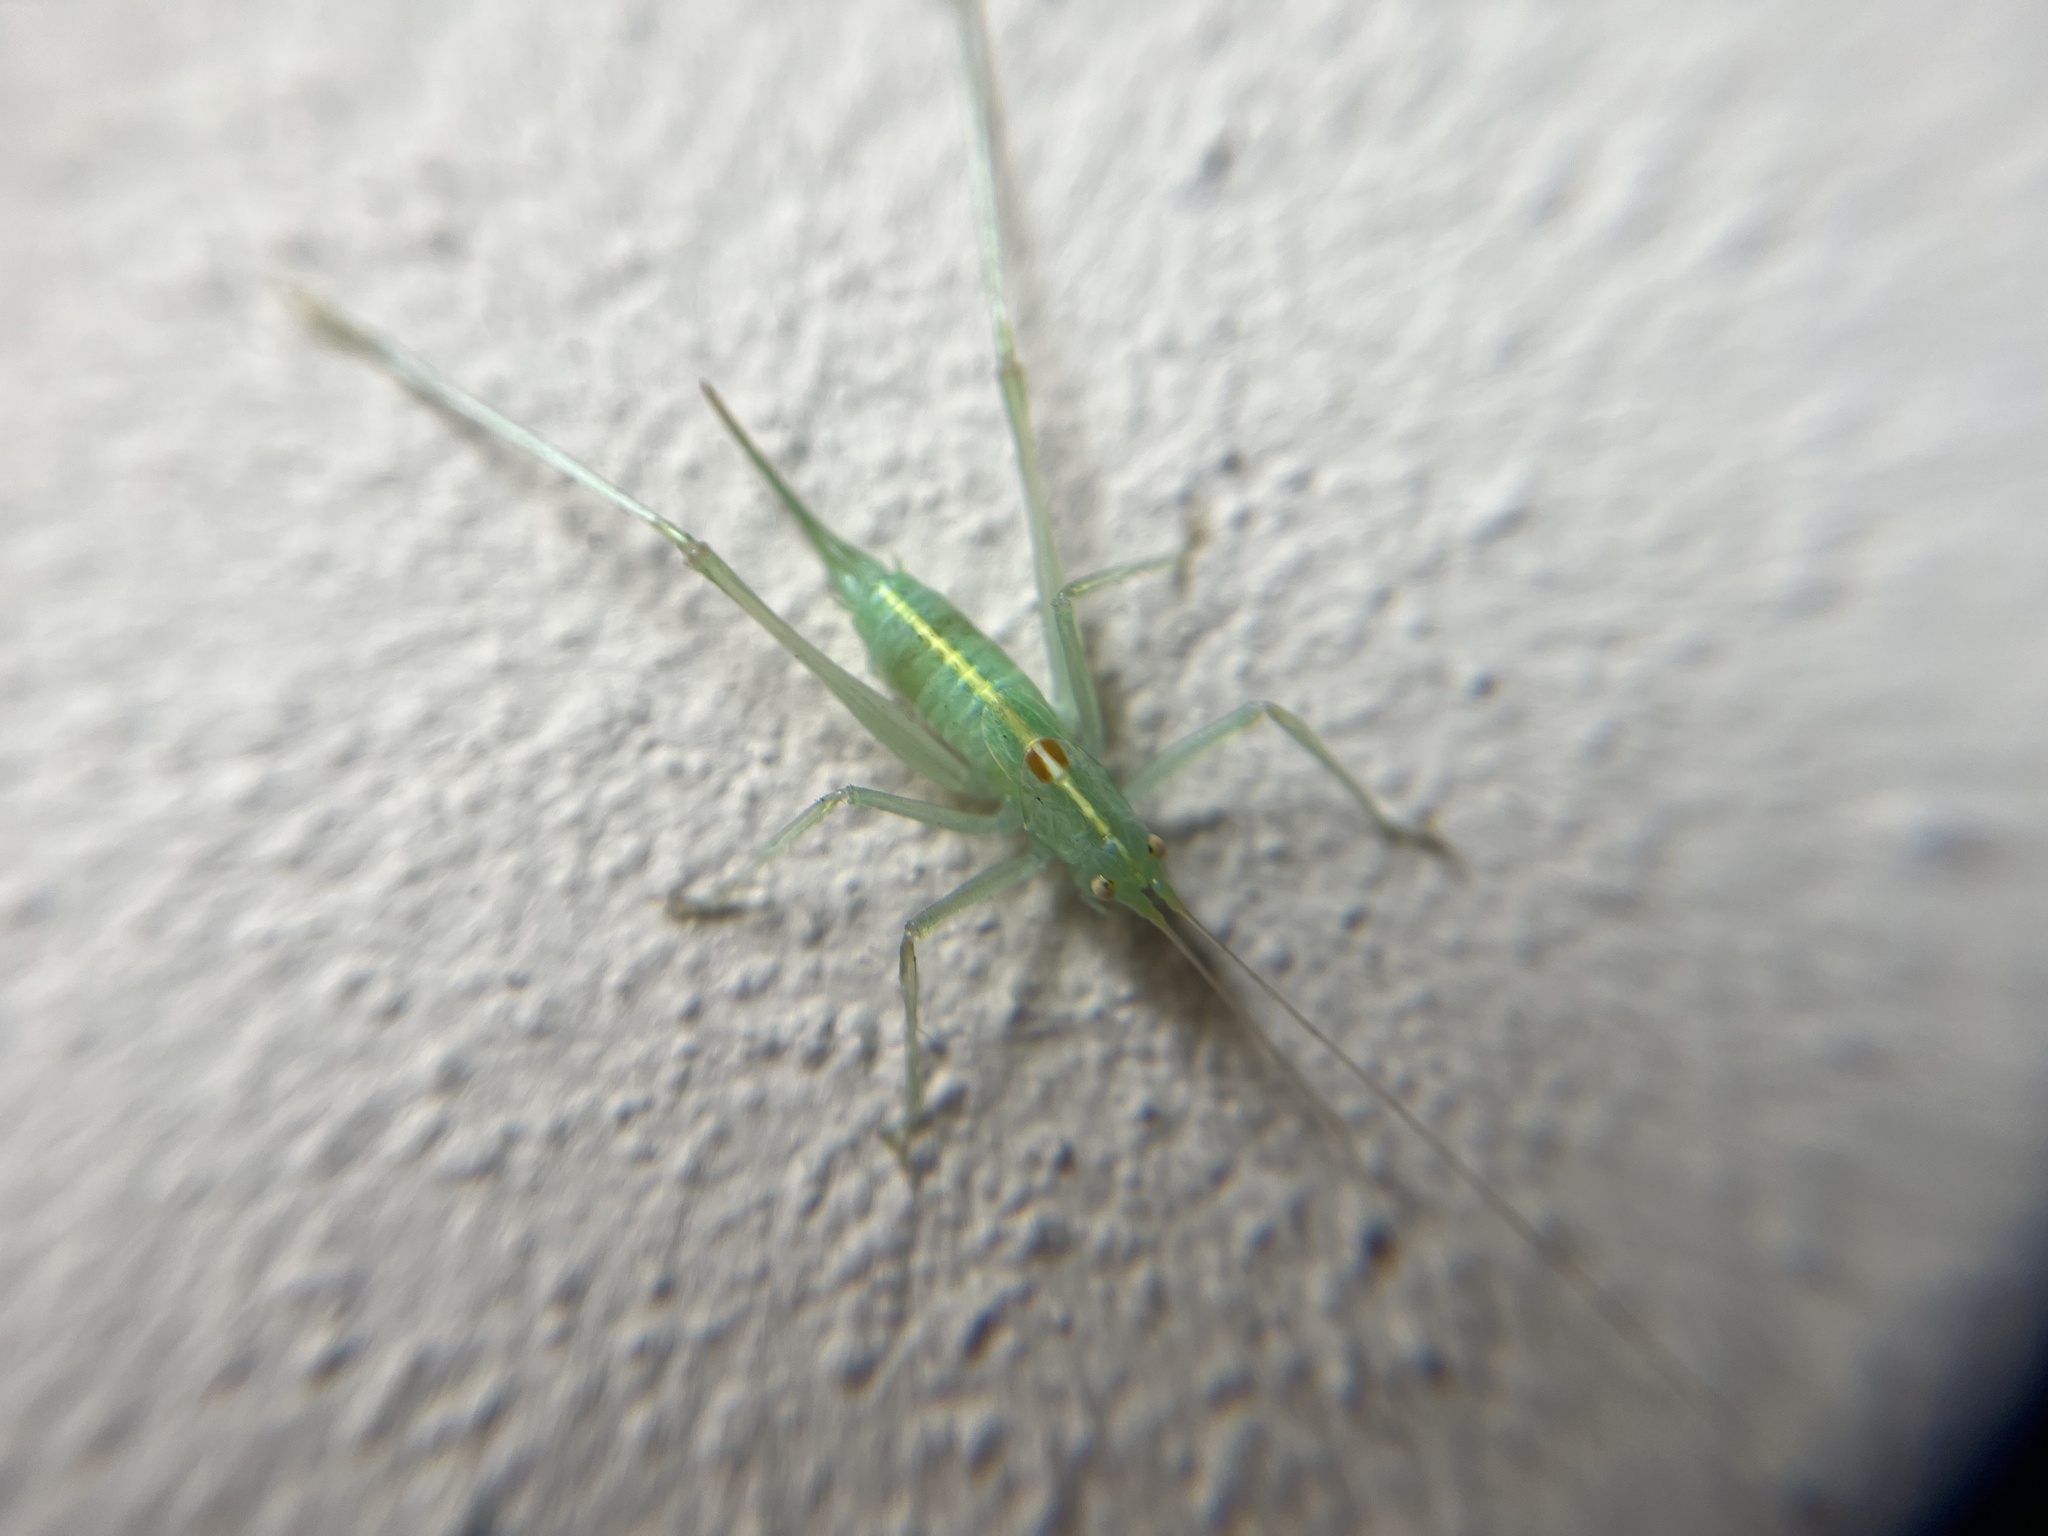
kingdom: Animalia
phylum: Arthropoda
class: Insecta
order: Orthoptera
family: Tettigoniidae
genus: Meconema
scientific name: Meconema meridionale
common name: Southern oak bush-cricket
